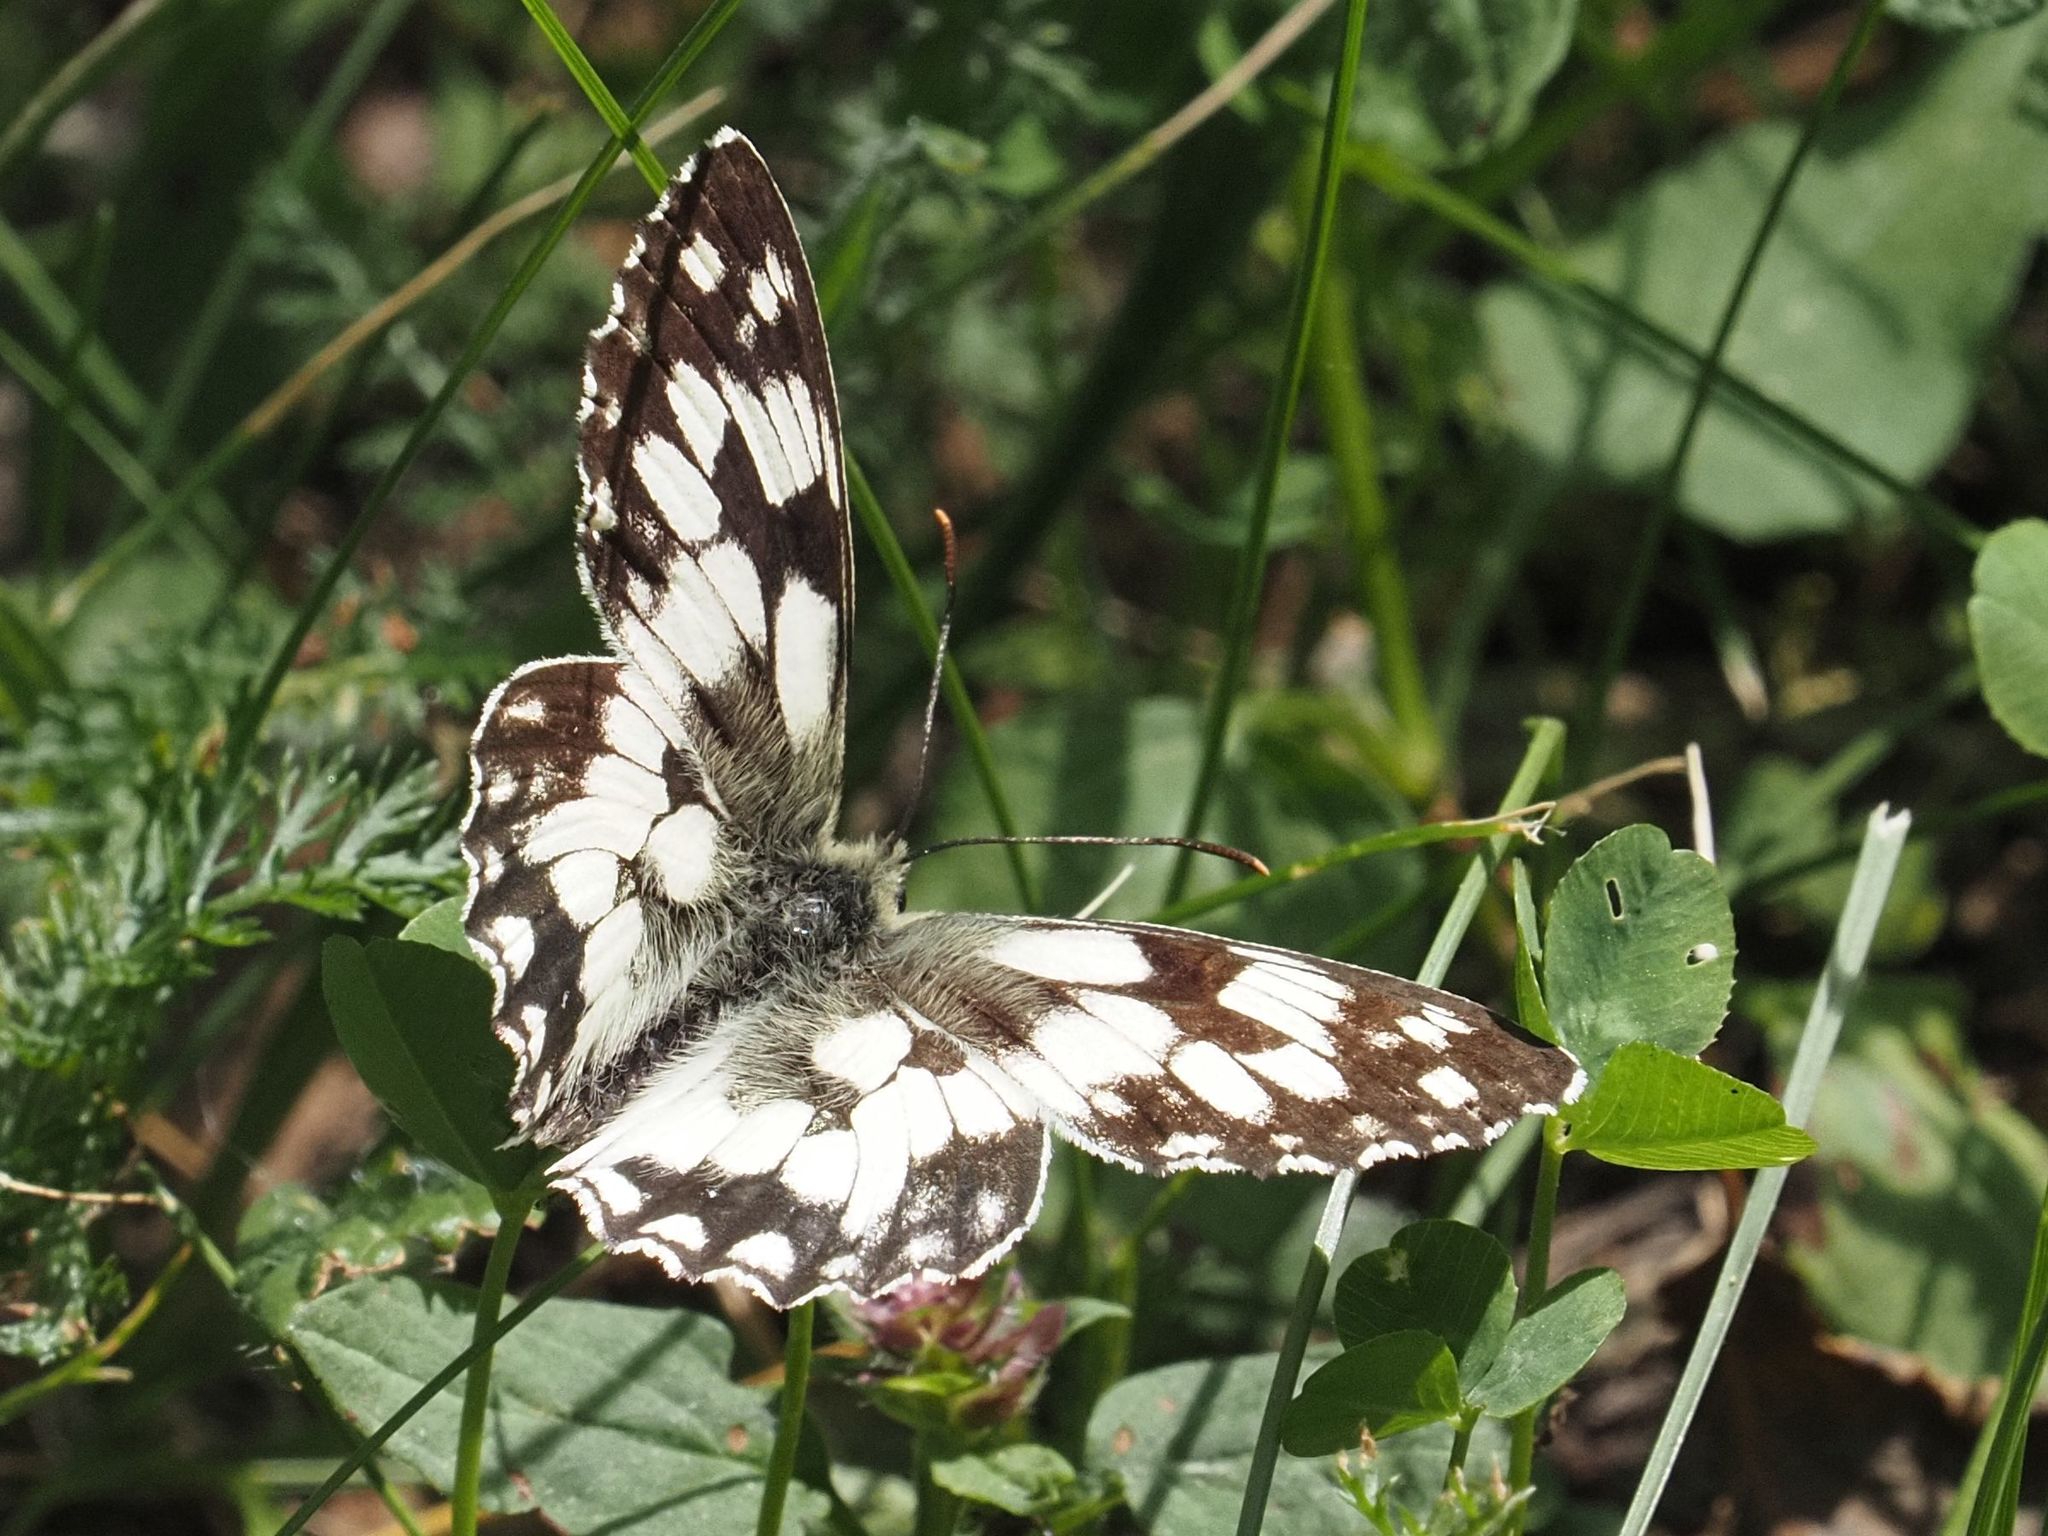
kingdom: Animalia
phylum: Arthropoda
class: Insecta
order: Lepidoptera
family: Nymphalidae
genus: Melanargia
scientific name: Melanargia galathea
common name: Marbled white
